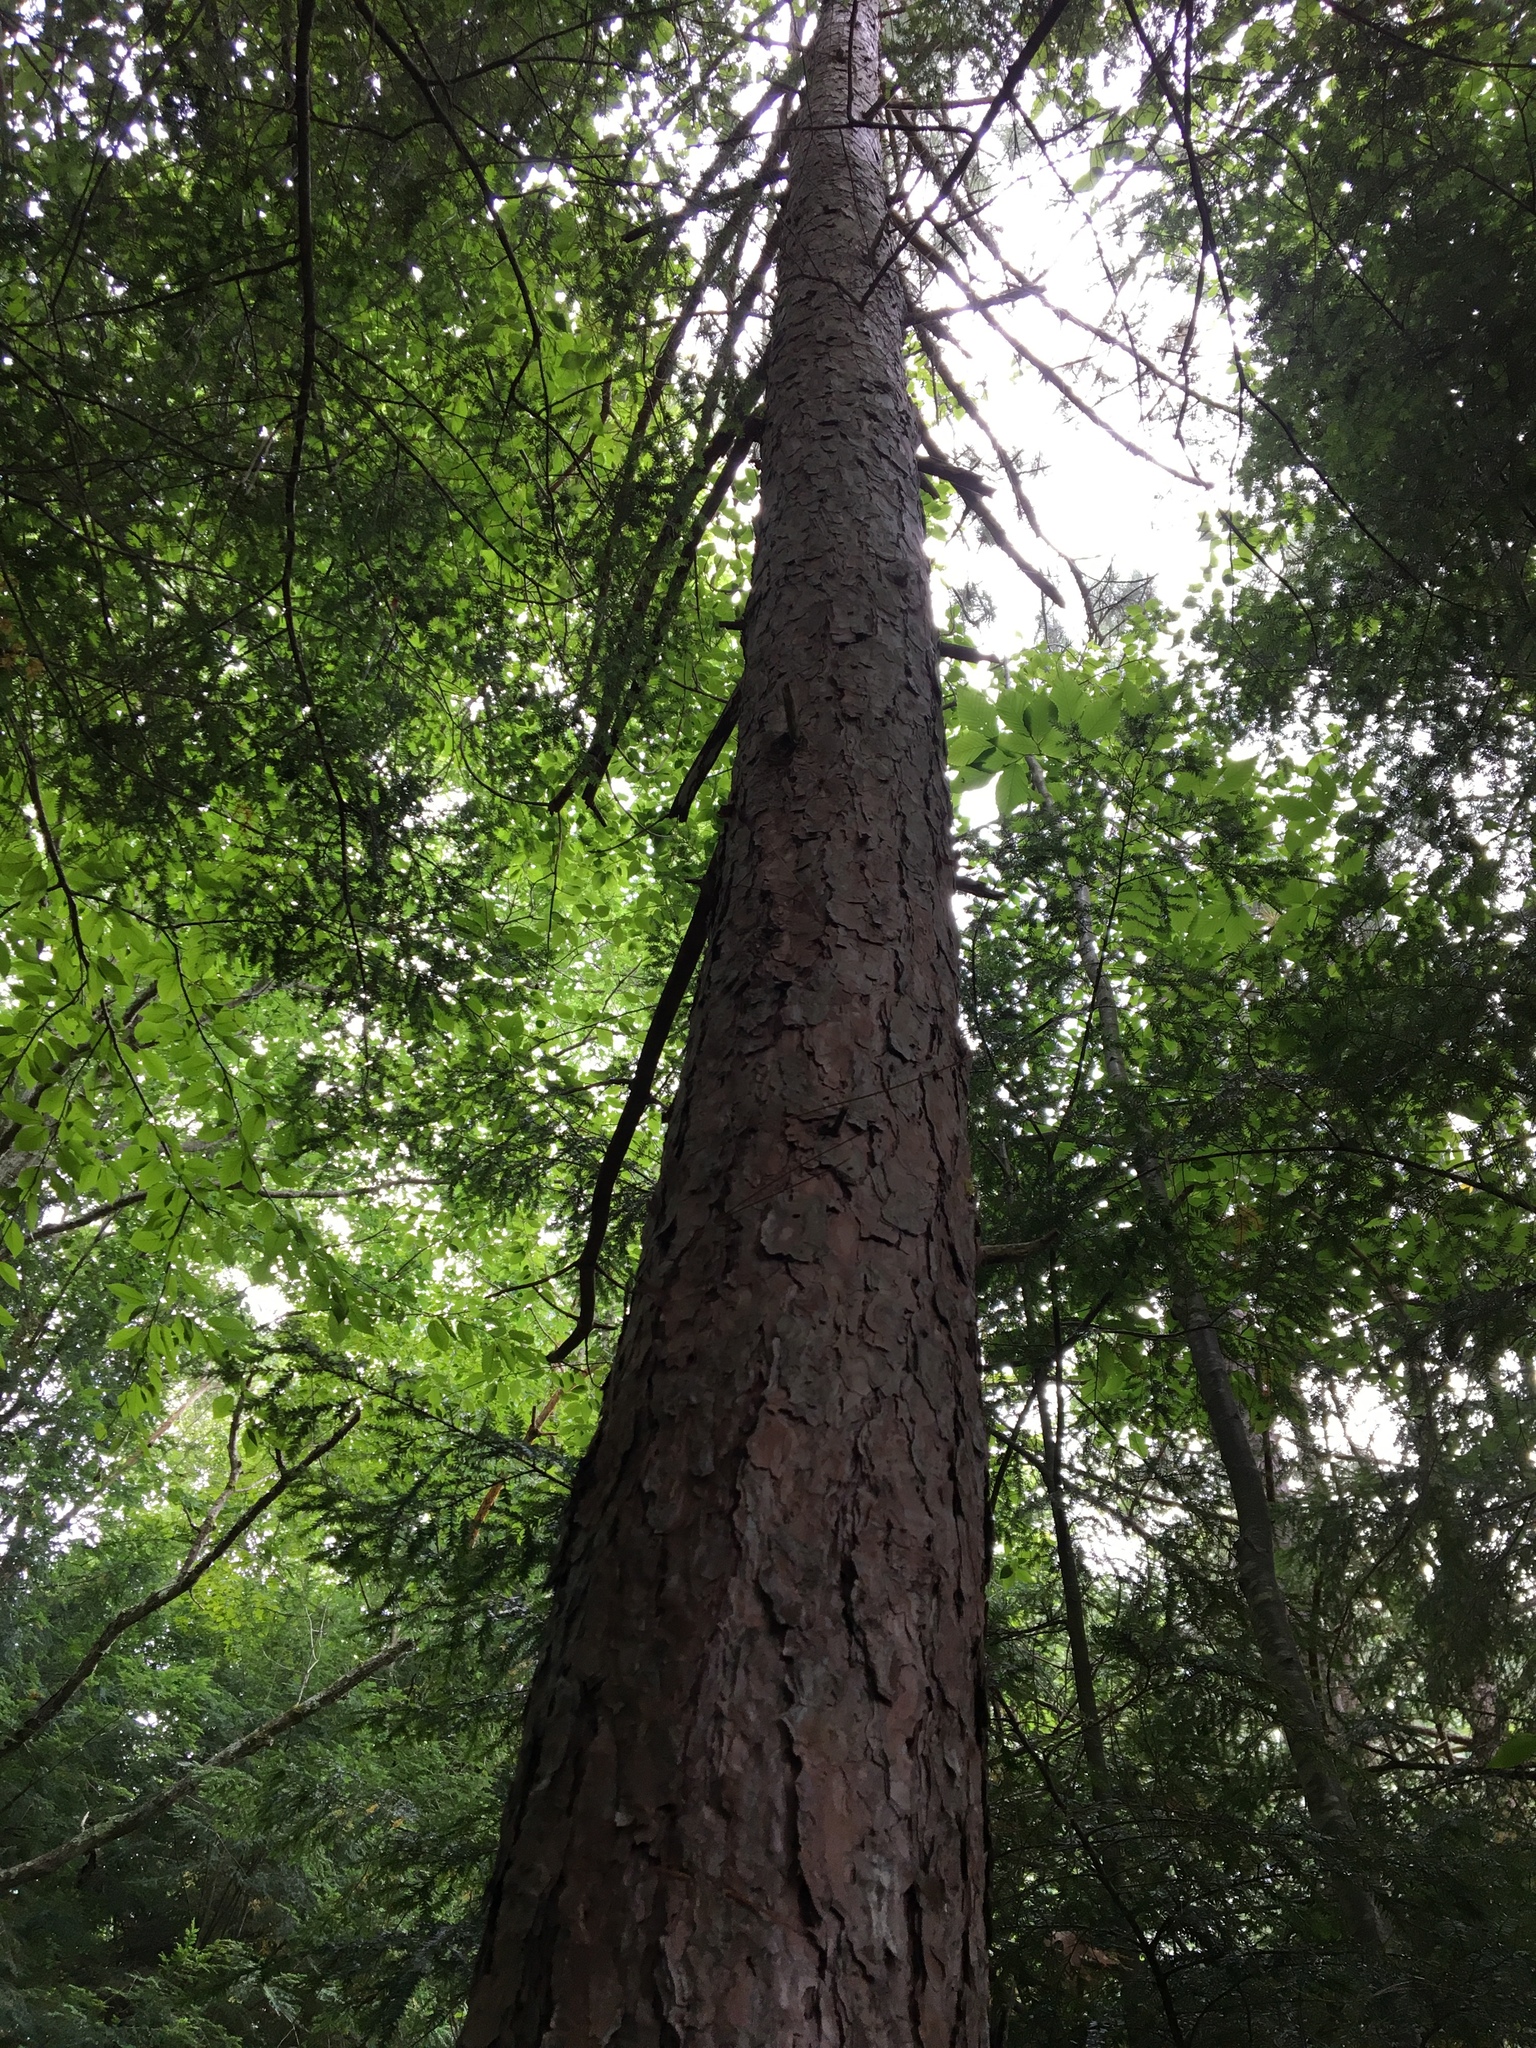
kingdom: Plantae
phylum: Tracheophyta
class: Pinopsida
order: Pinales
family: Pinaceae
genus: Pinus
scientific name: Pinus resinosa
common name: Norway pine
